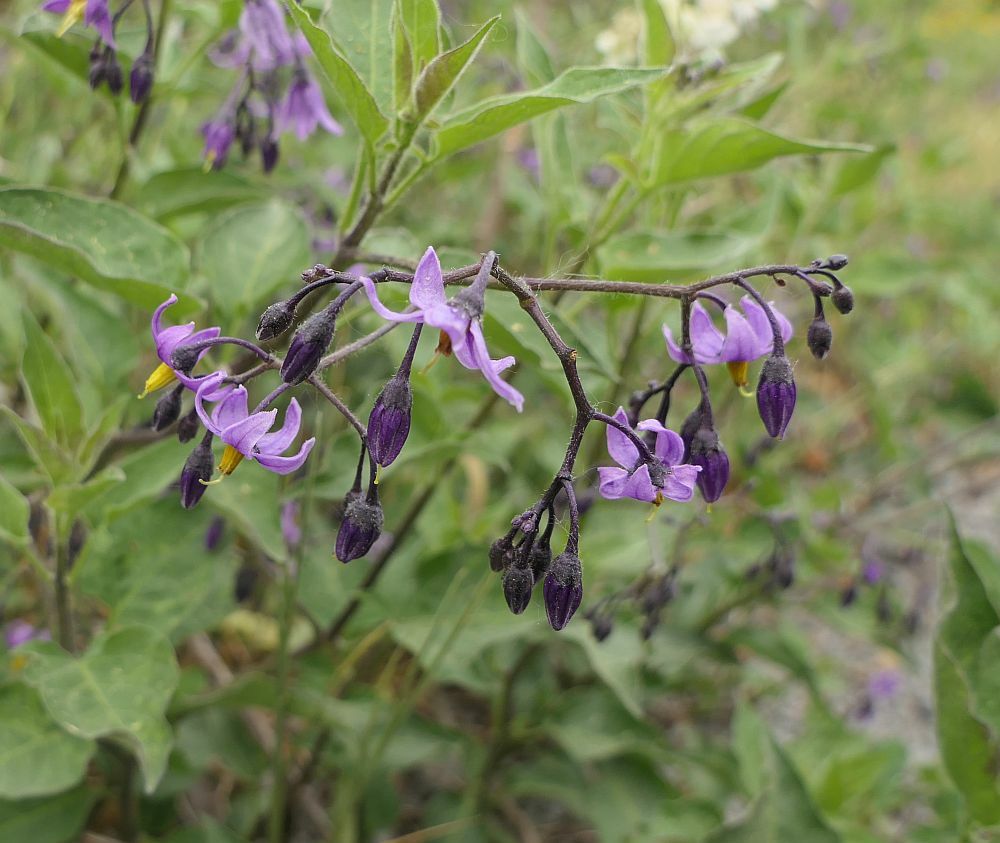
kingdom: Plantae
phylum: Tracheophyta
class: Magnoliopsida
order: Solanales
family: Solanaceae
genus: Solanum
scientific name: Solanum dulcamara
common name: Climbing nightshade
